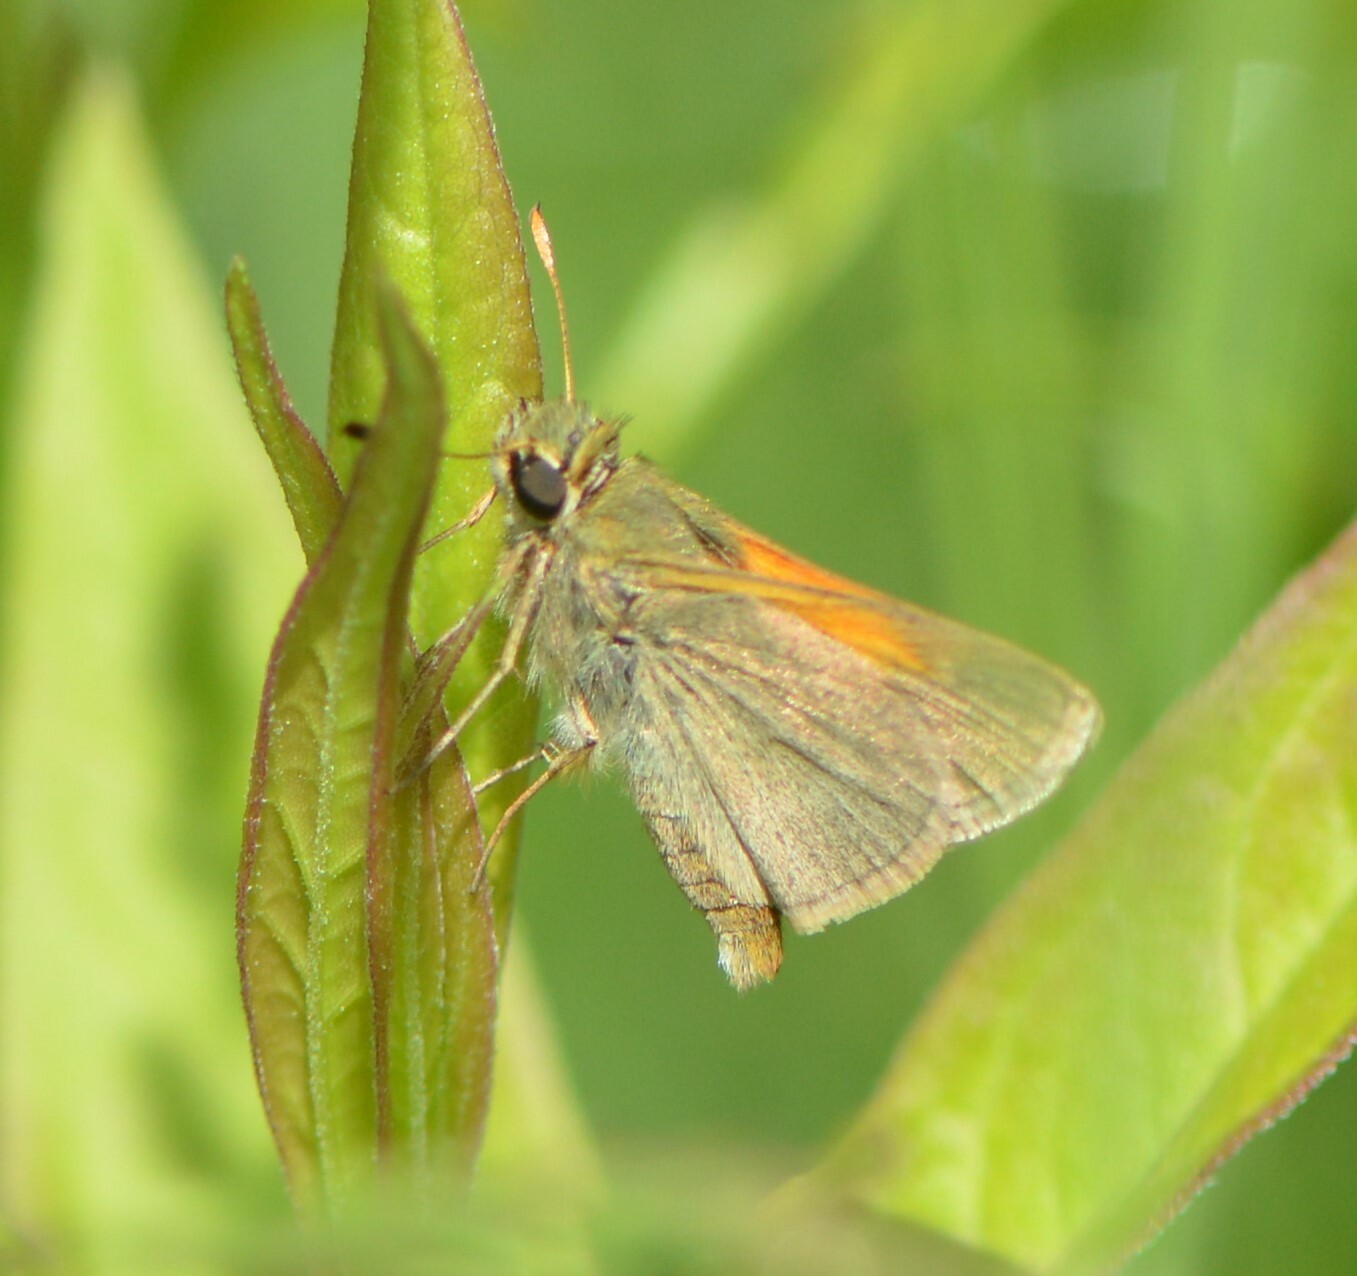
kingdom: Animalia
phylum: Arthropoda
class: Insecta
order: Lepidoptera
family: Hesperiidae
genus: Polites
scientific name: Polites themistocles
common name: Tawny-edged skipper
